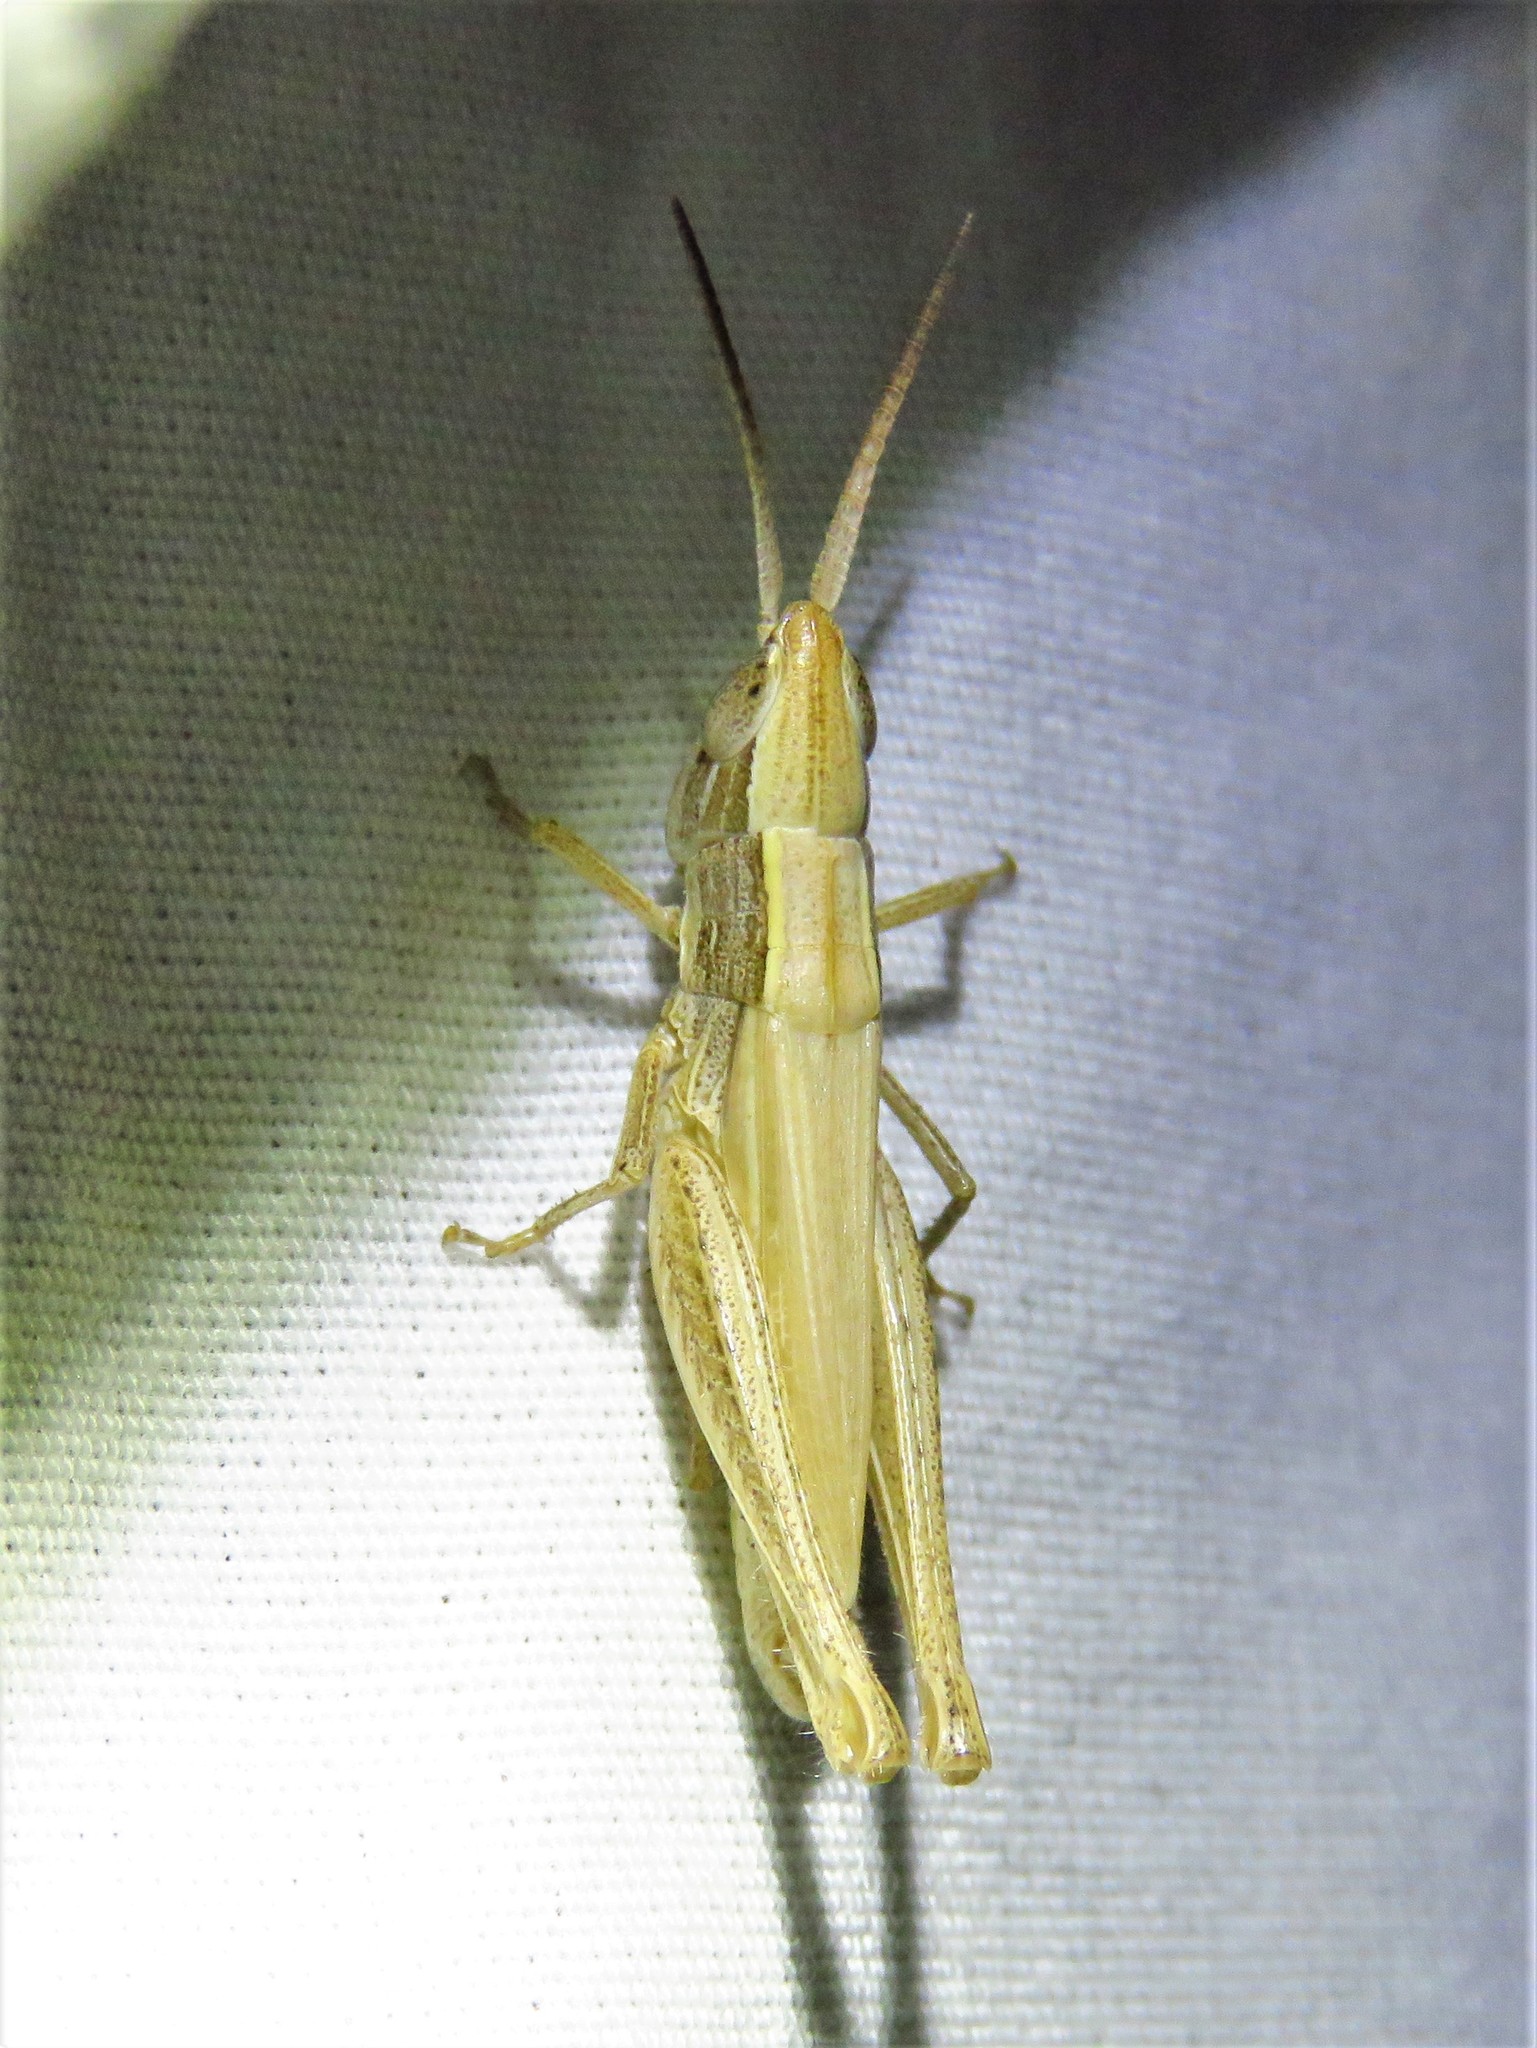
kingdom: Animalia
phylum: Arthropoda
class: Insecta
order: Orthoptera
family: Acrididae
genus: Opeia
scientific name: Opeia obscura
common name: Obscure grasshopper
